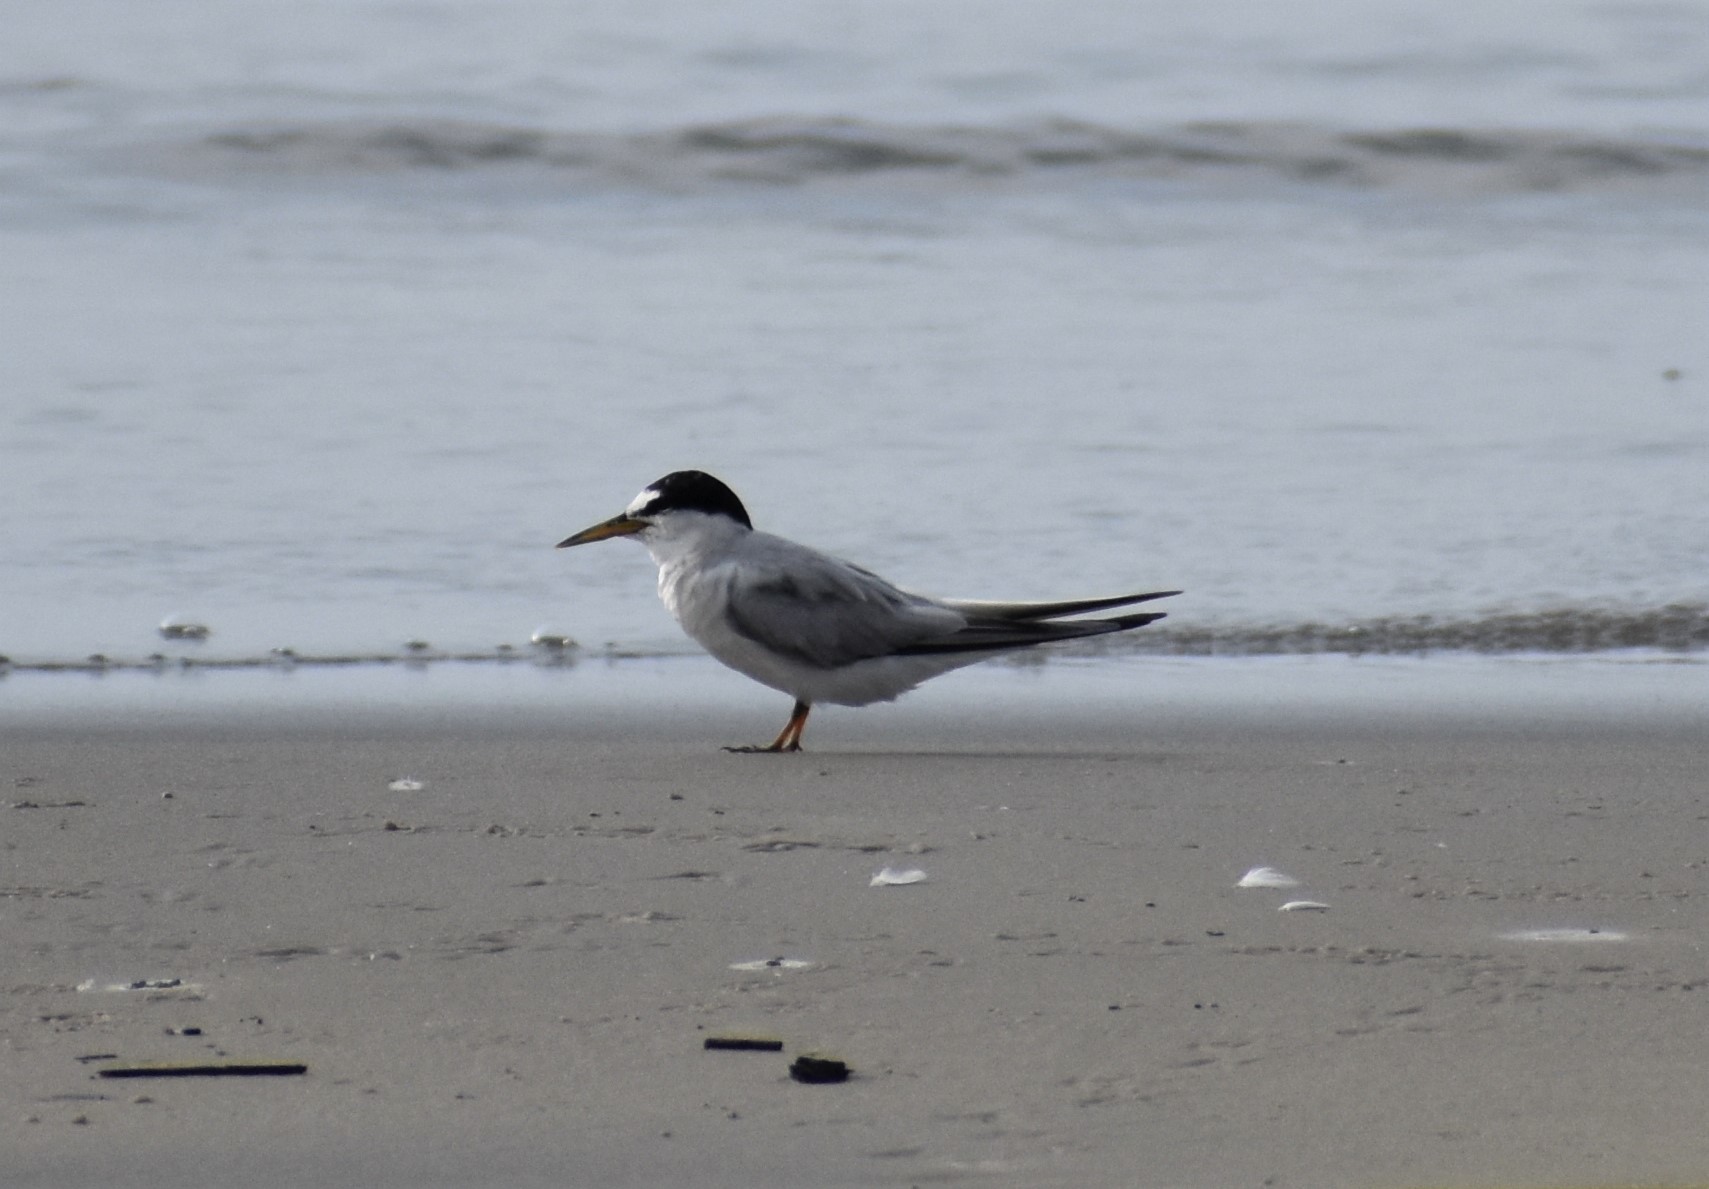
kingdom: Animalia
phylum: Chordata
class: Aves
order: Charadriiformes
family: Laridae
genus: Sternula
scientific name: Sternula antillarum
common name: Least tern
